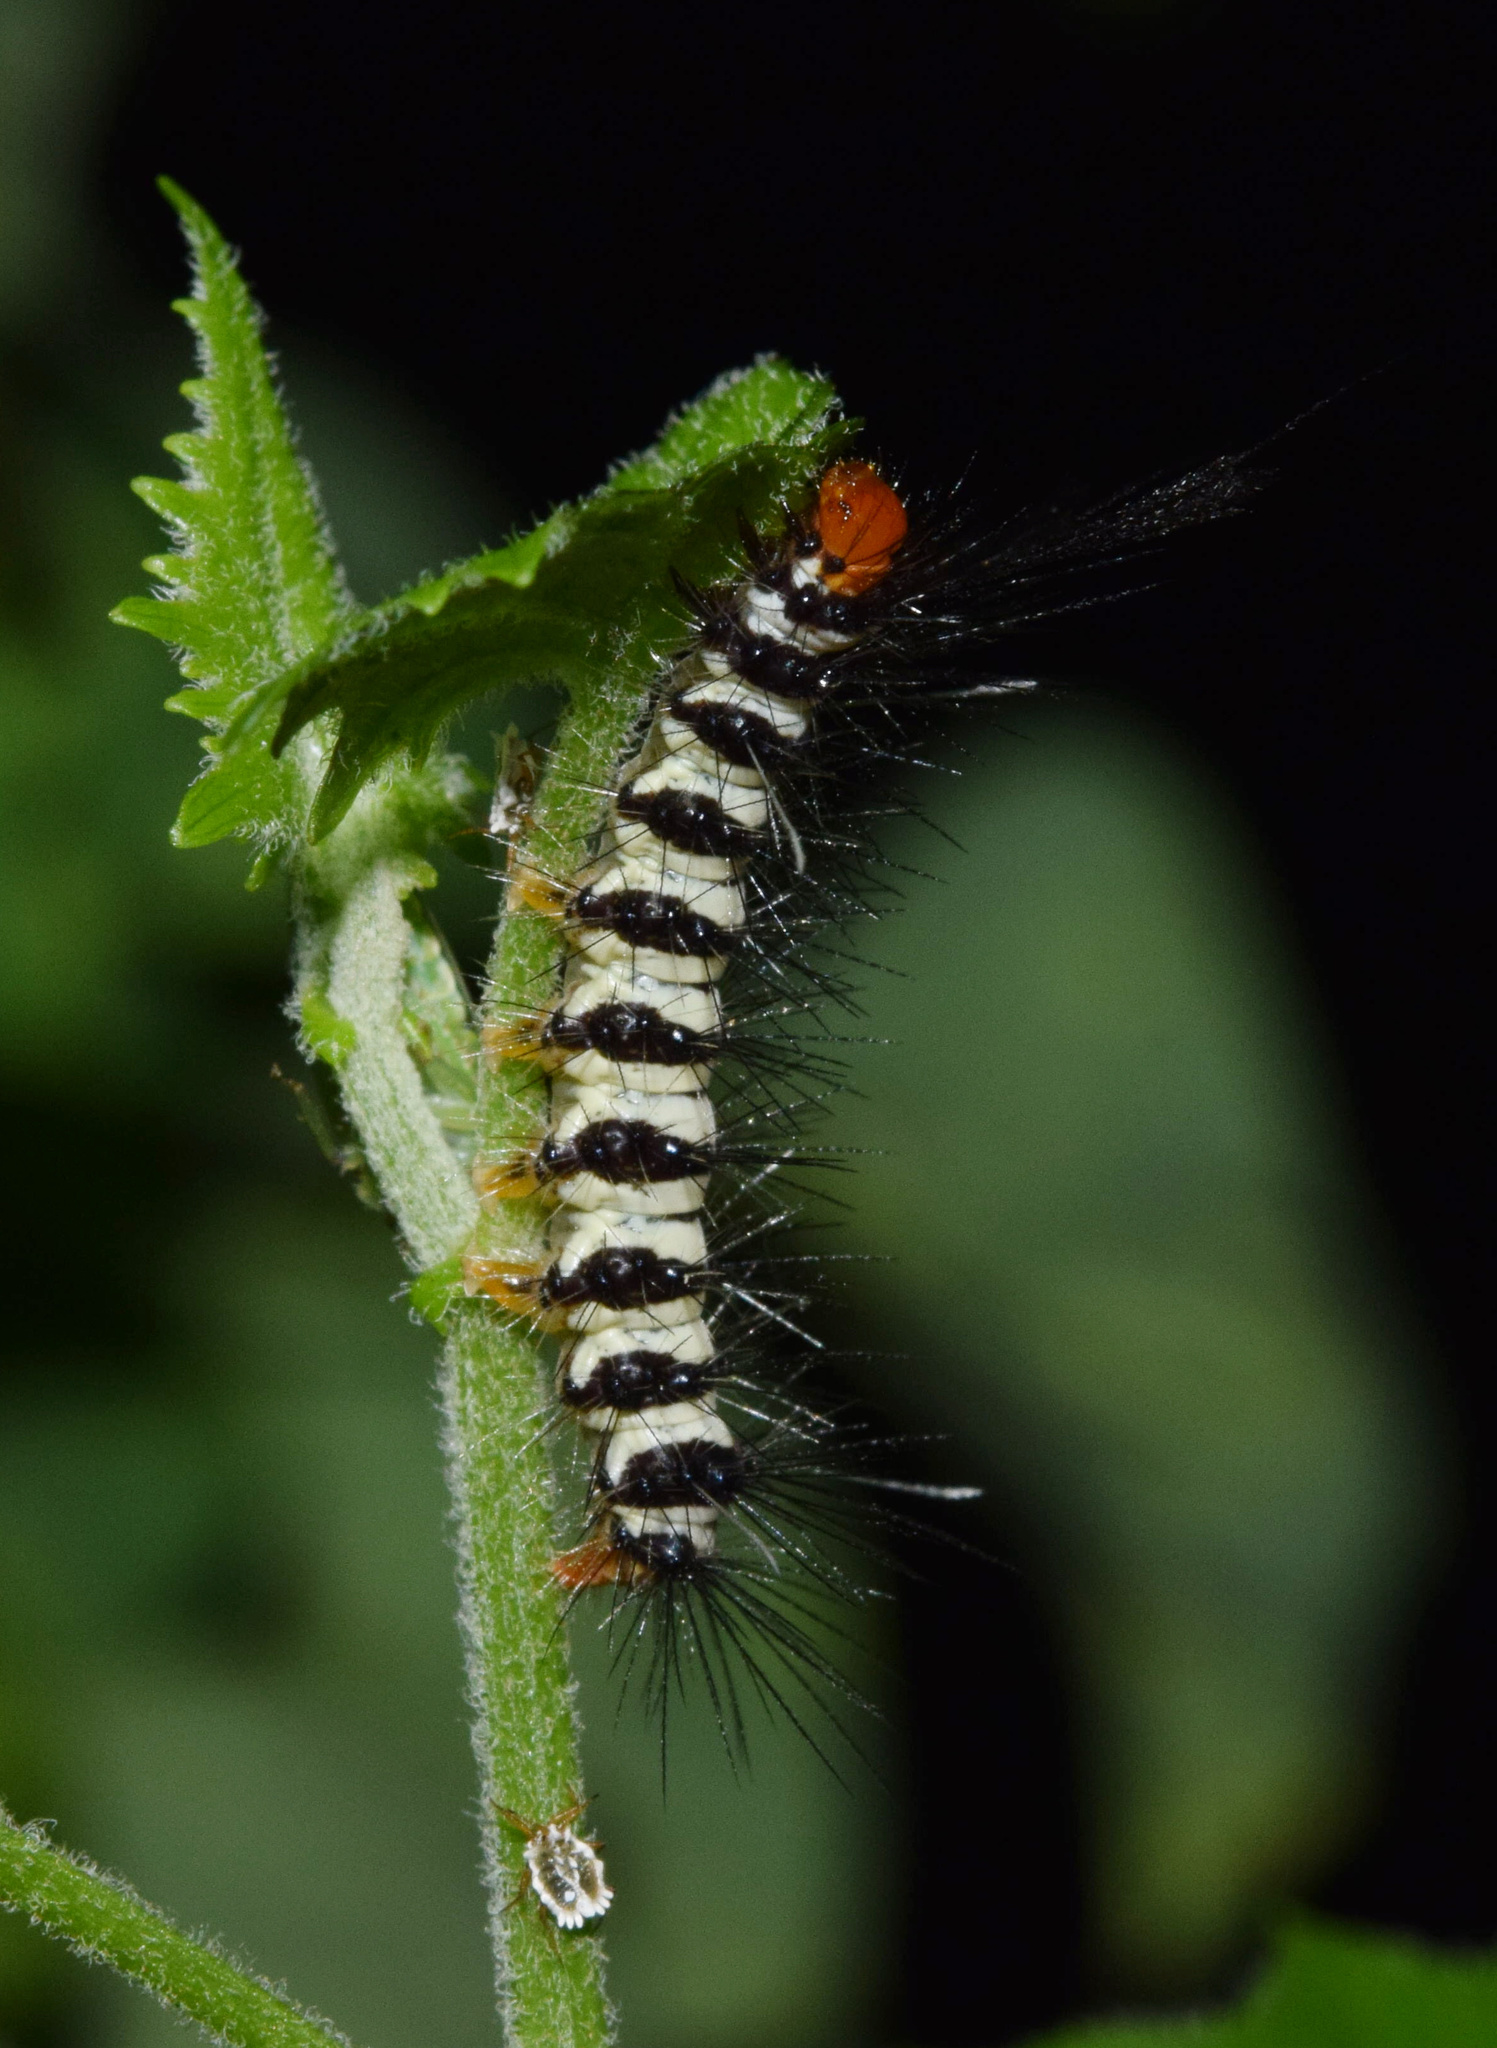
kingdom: Animalia
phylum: Arthropoda
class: Insecta
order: Lepidoptera
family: Erebidae
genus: Nyctemera
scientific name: Nyctemera
